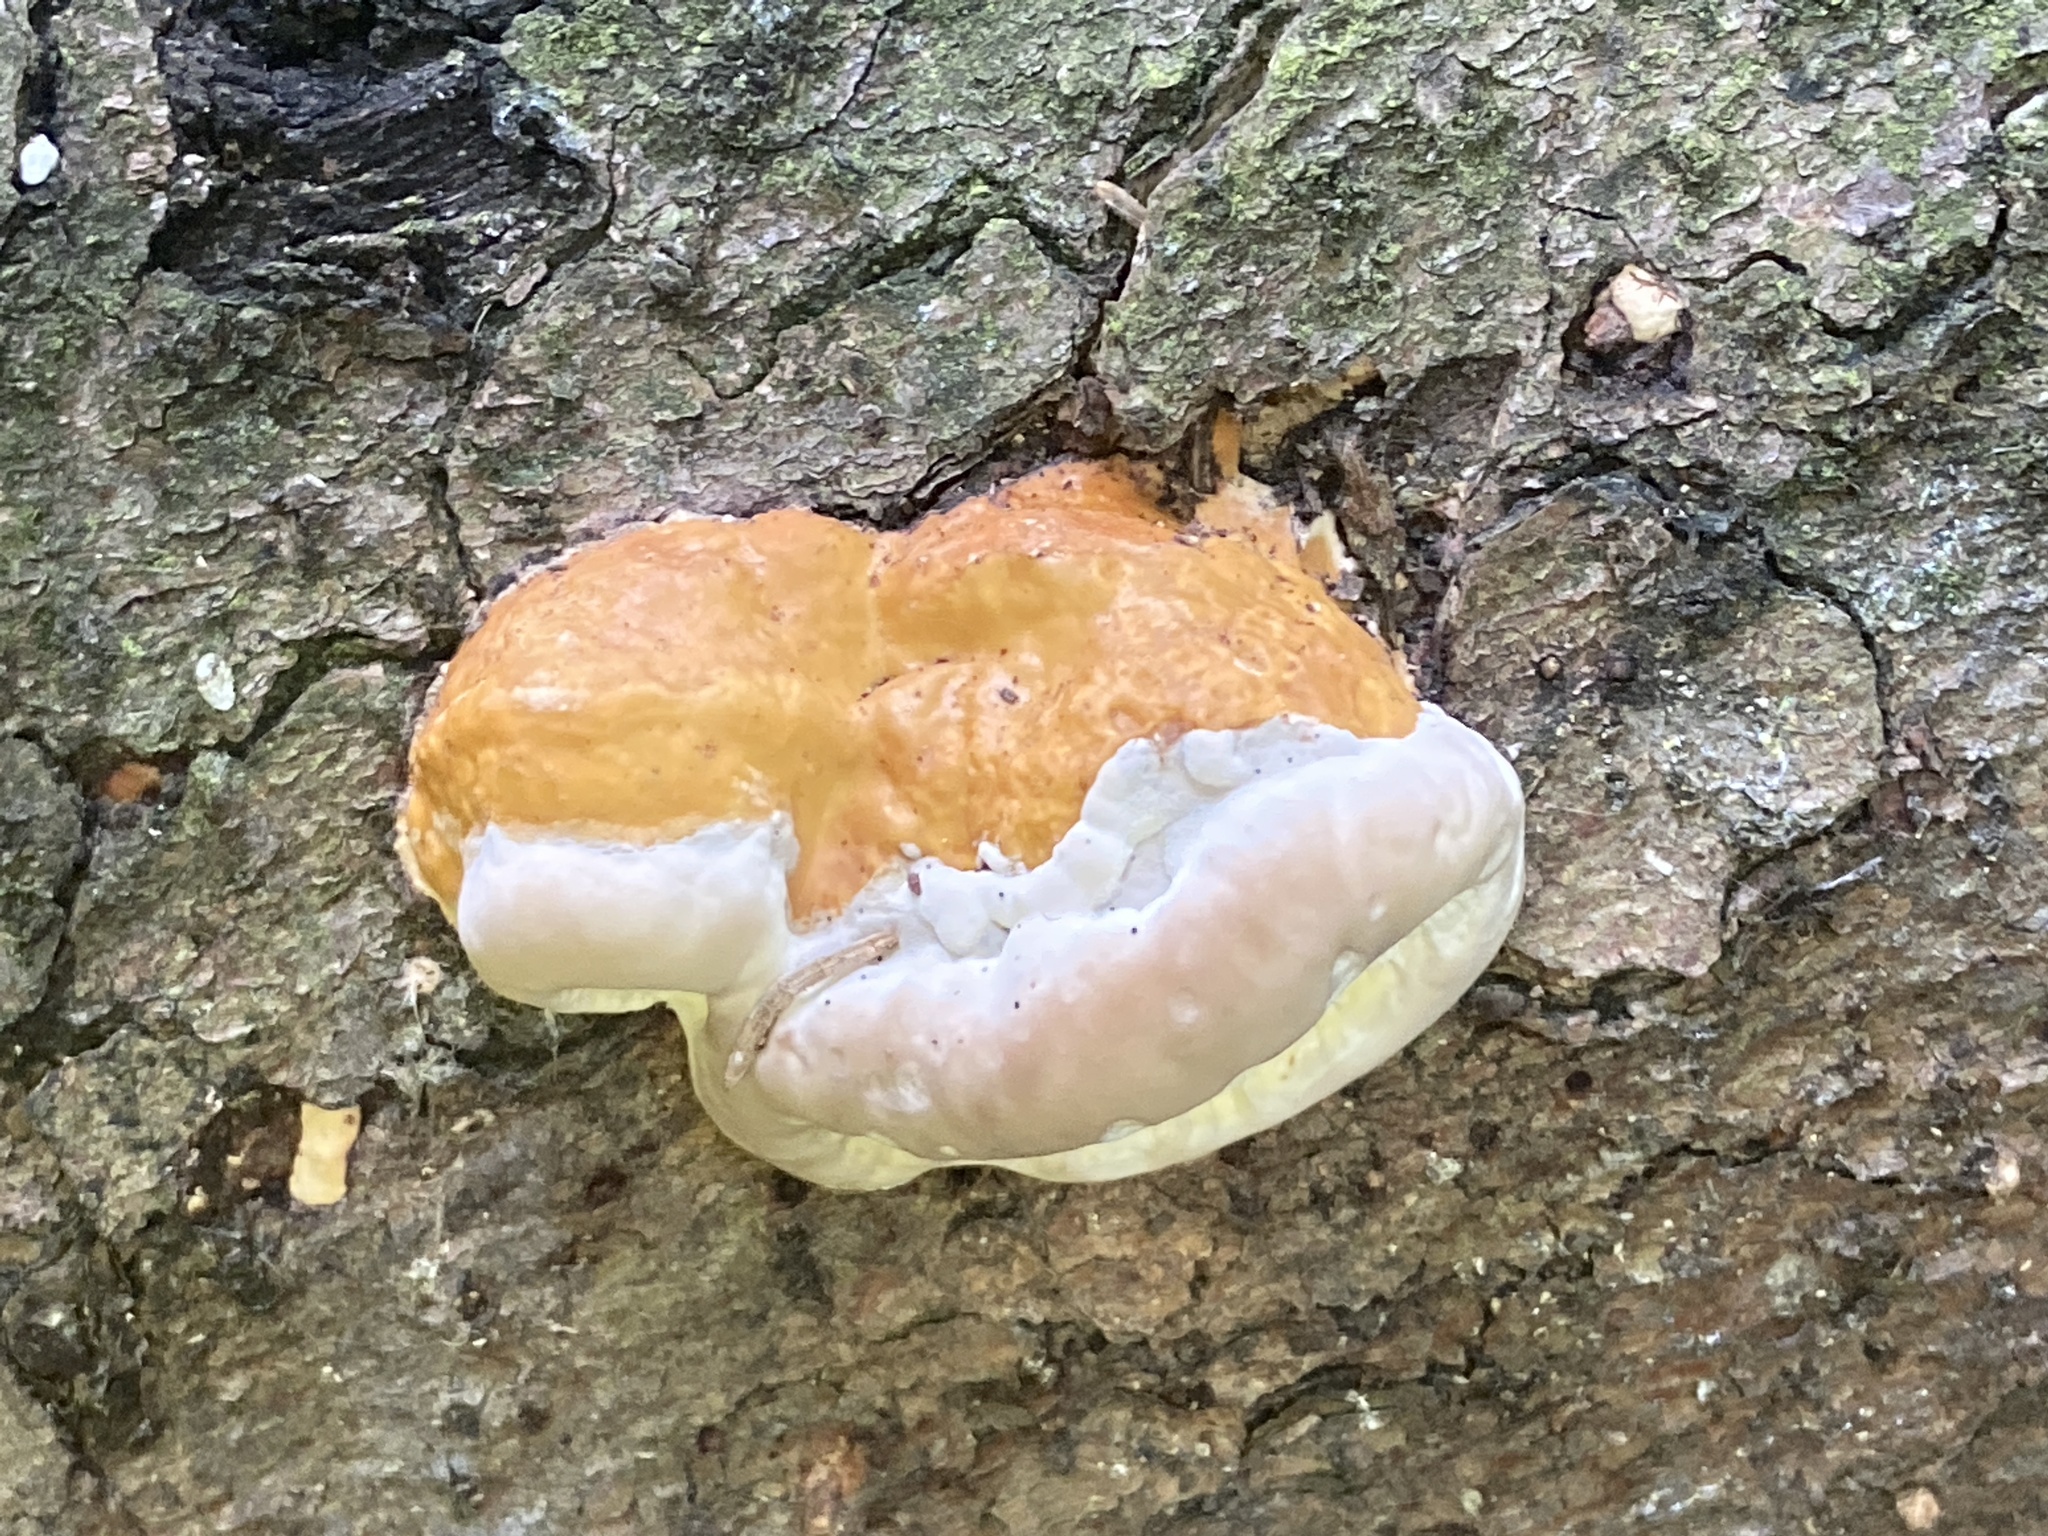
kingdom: Fungi
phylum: Basidiomycota
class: Agaricomycetes
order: Polyporales
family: Fomitopsidaceae
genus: Fomitopsis
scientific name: Fomitopsis pinicola
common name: Red-belted bracket
